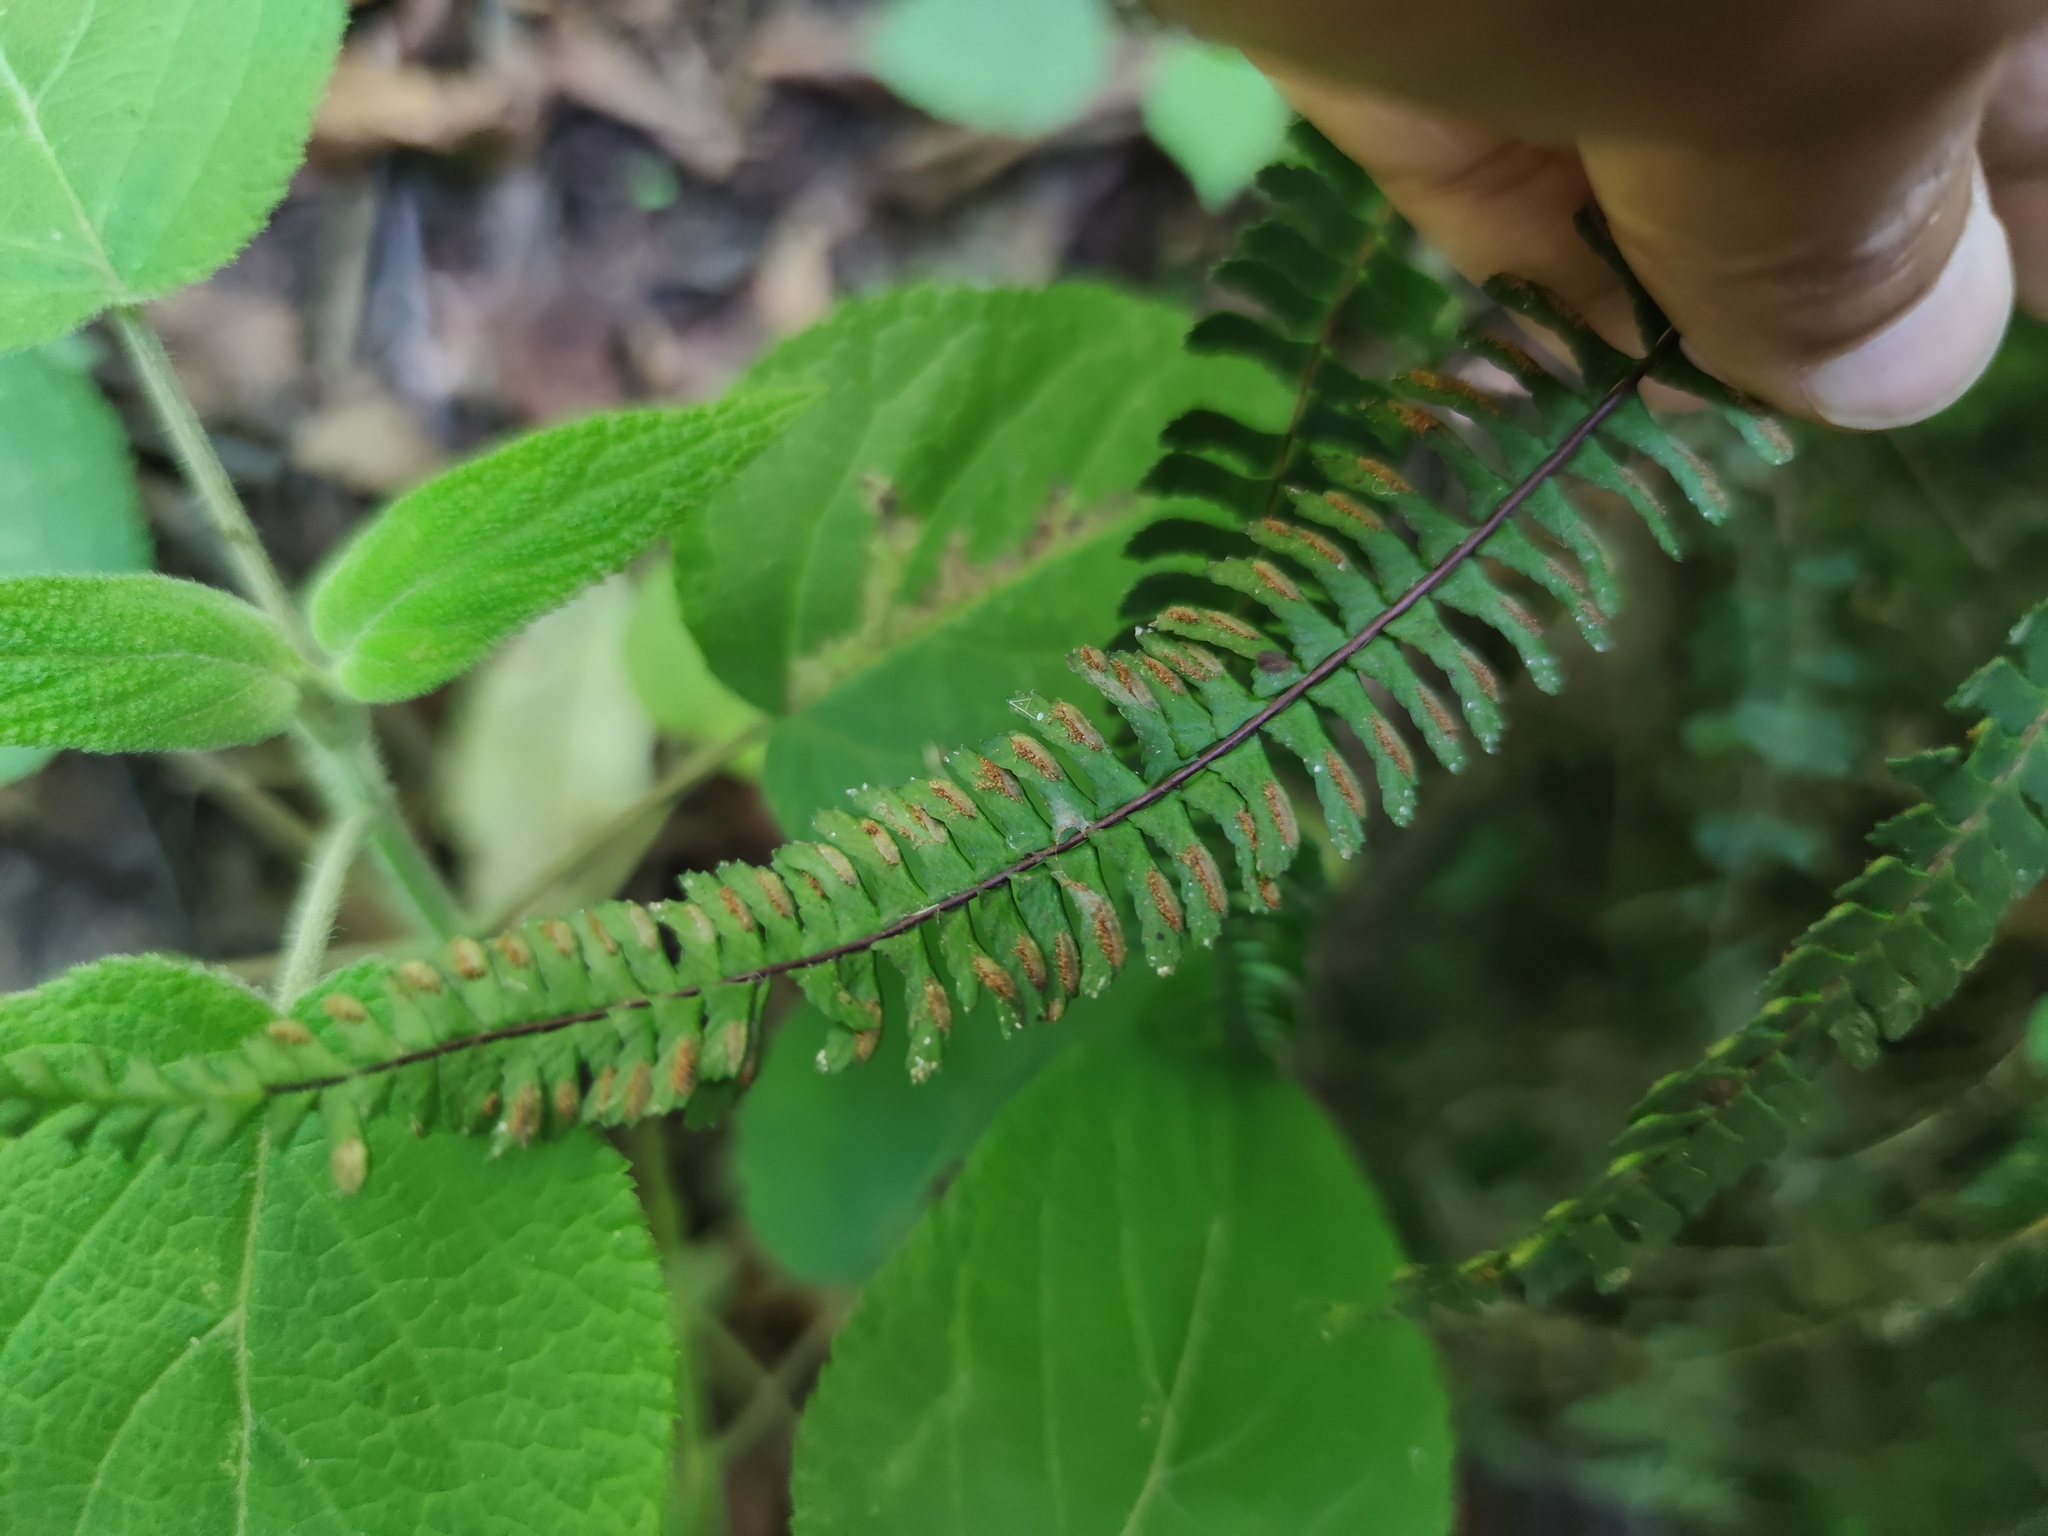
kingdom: Plantae
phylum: Tracheophyta
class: Polypodiopsida
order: Polypodiales
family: Aspleniaceae
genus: Asplenium
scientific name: Asplenium monanthes
